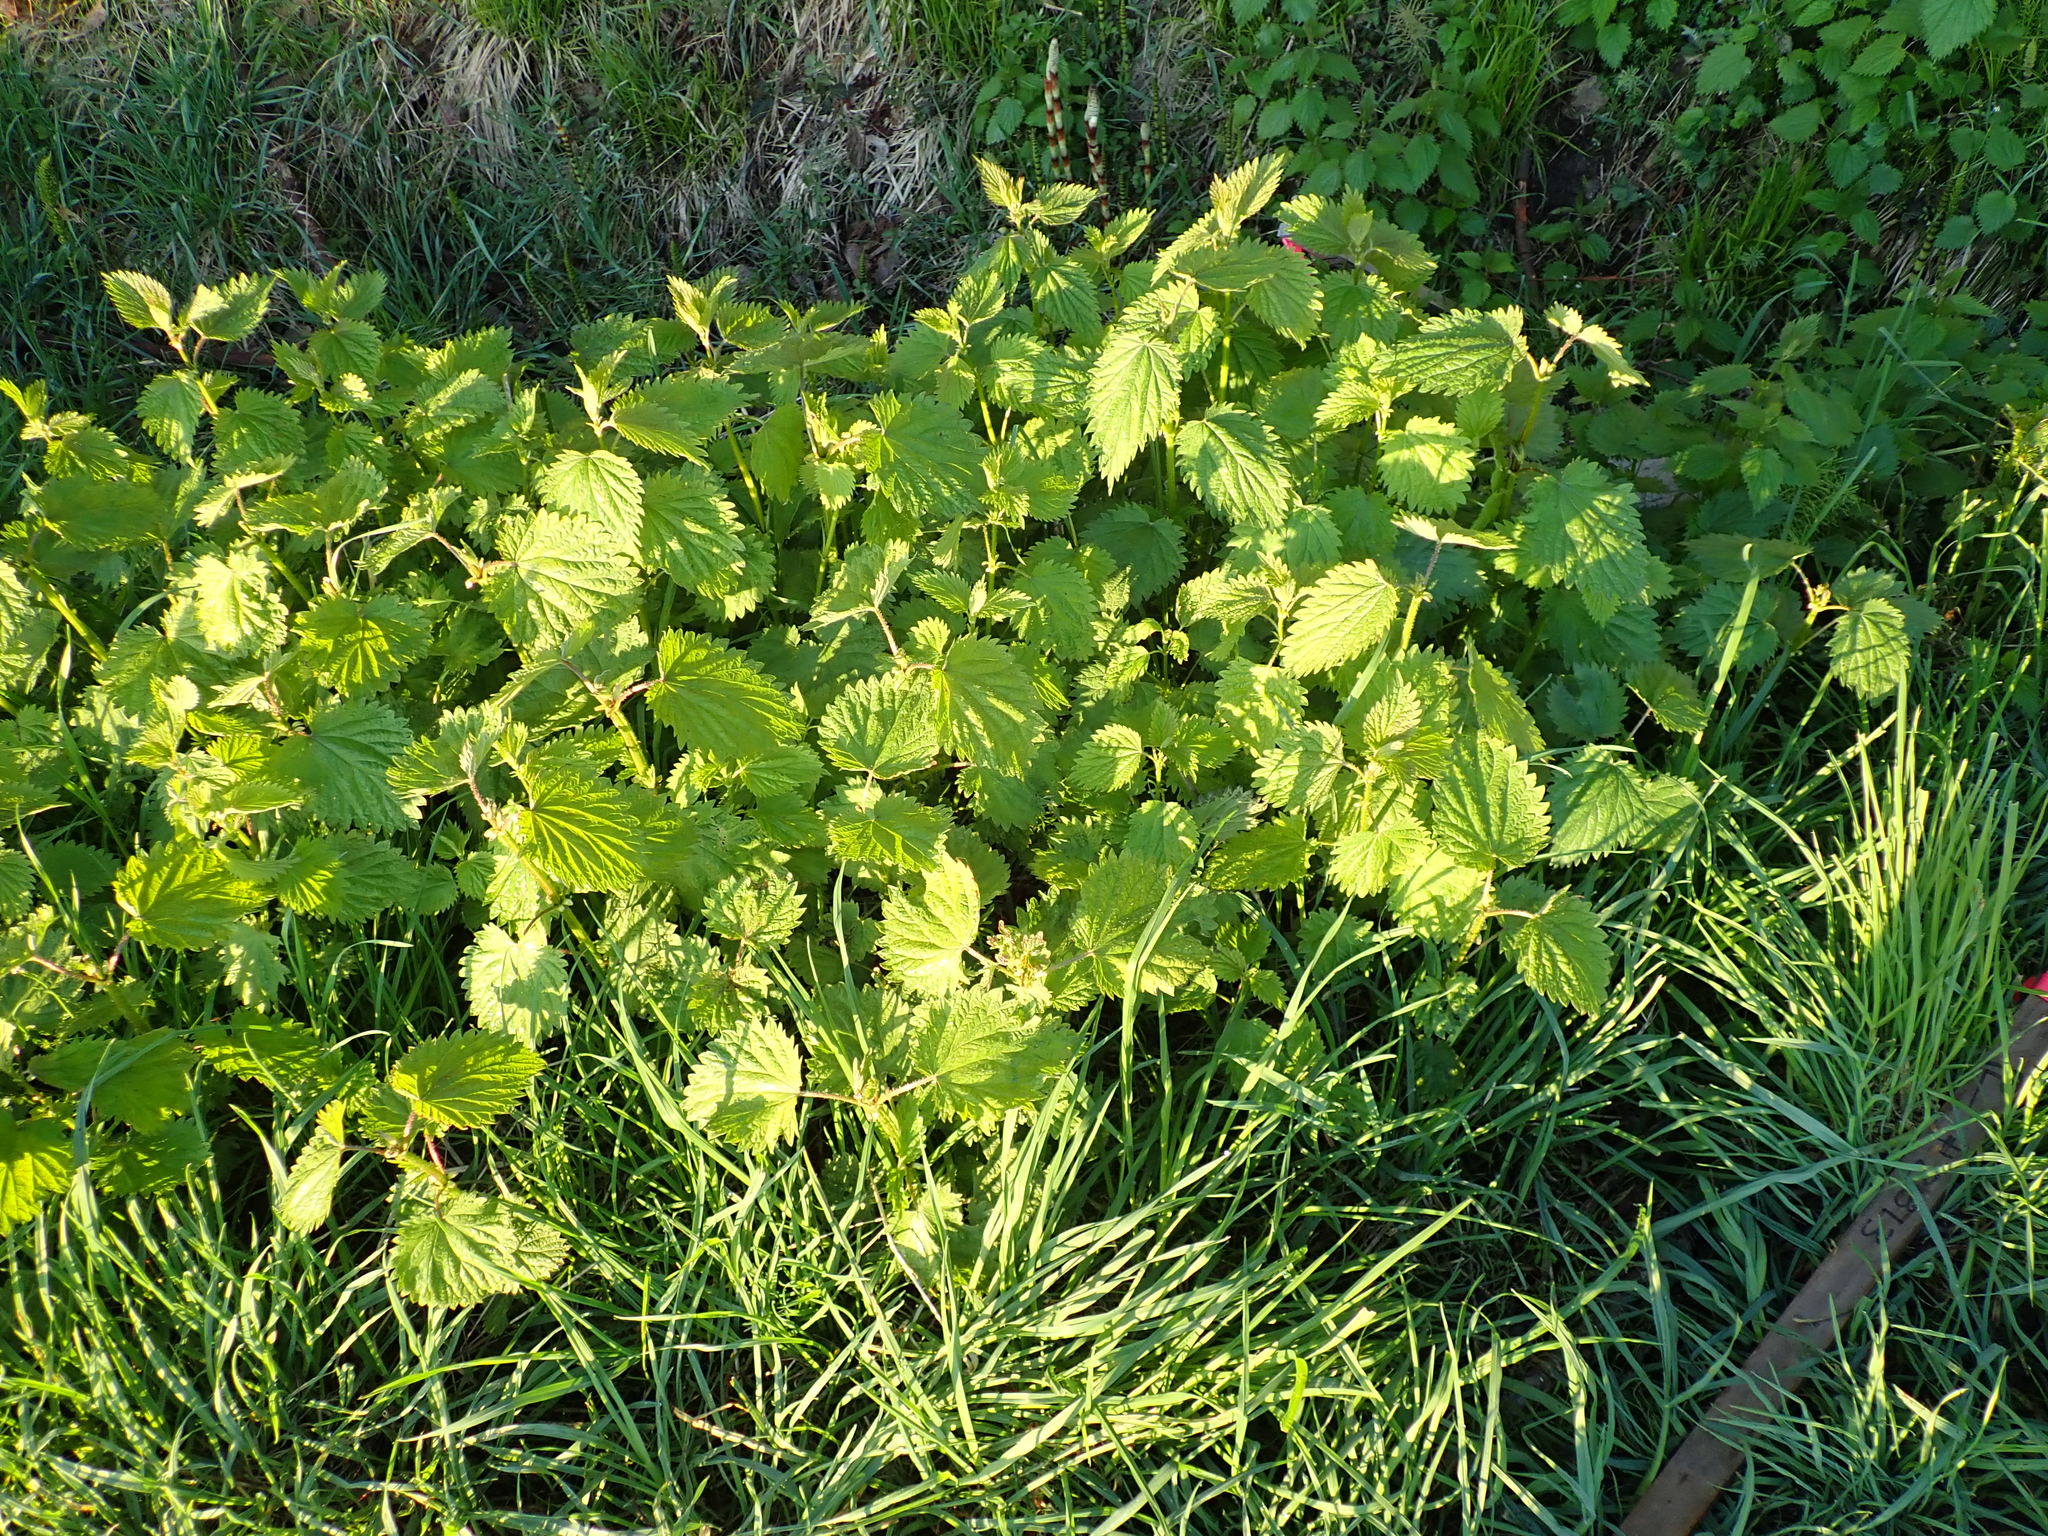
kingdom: Plantae
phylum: Tracheophyta
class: Magnoliopsida
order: Rosales
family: Urticaceae
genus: Urtica
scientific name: Urtica dioica
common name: Common nettle
